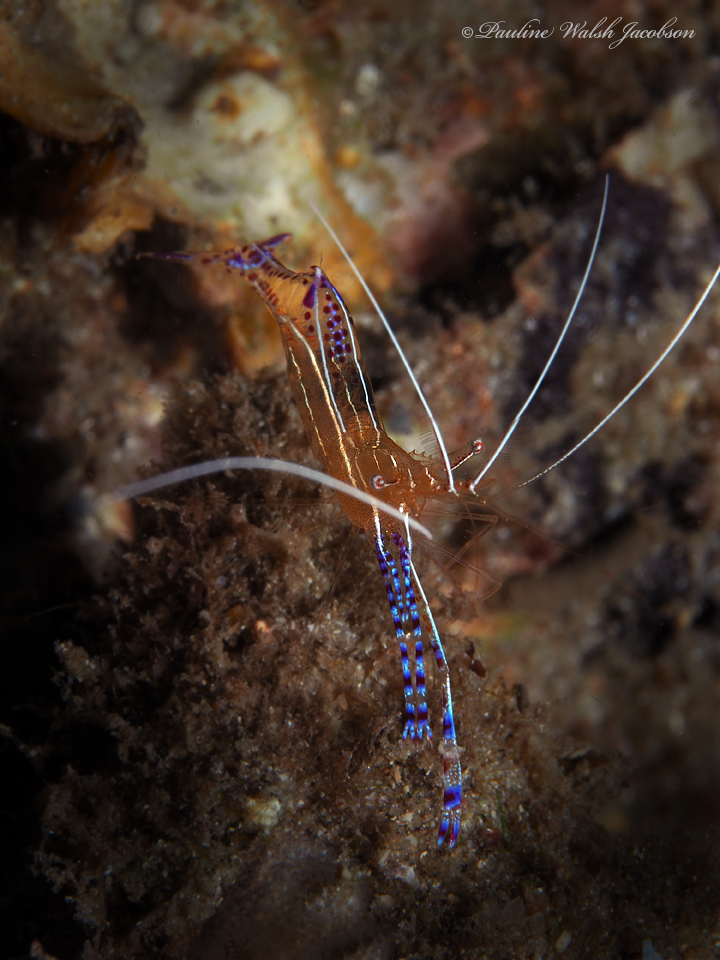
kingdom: Animalia
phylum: Arthropoda
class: Malacostraca
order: Decapoda
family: Palaemonidae
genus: Ancylomenes
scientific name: Ancylomenes pedersoni
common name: Pederson's cleaning shrimp
